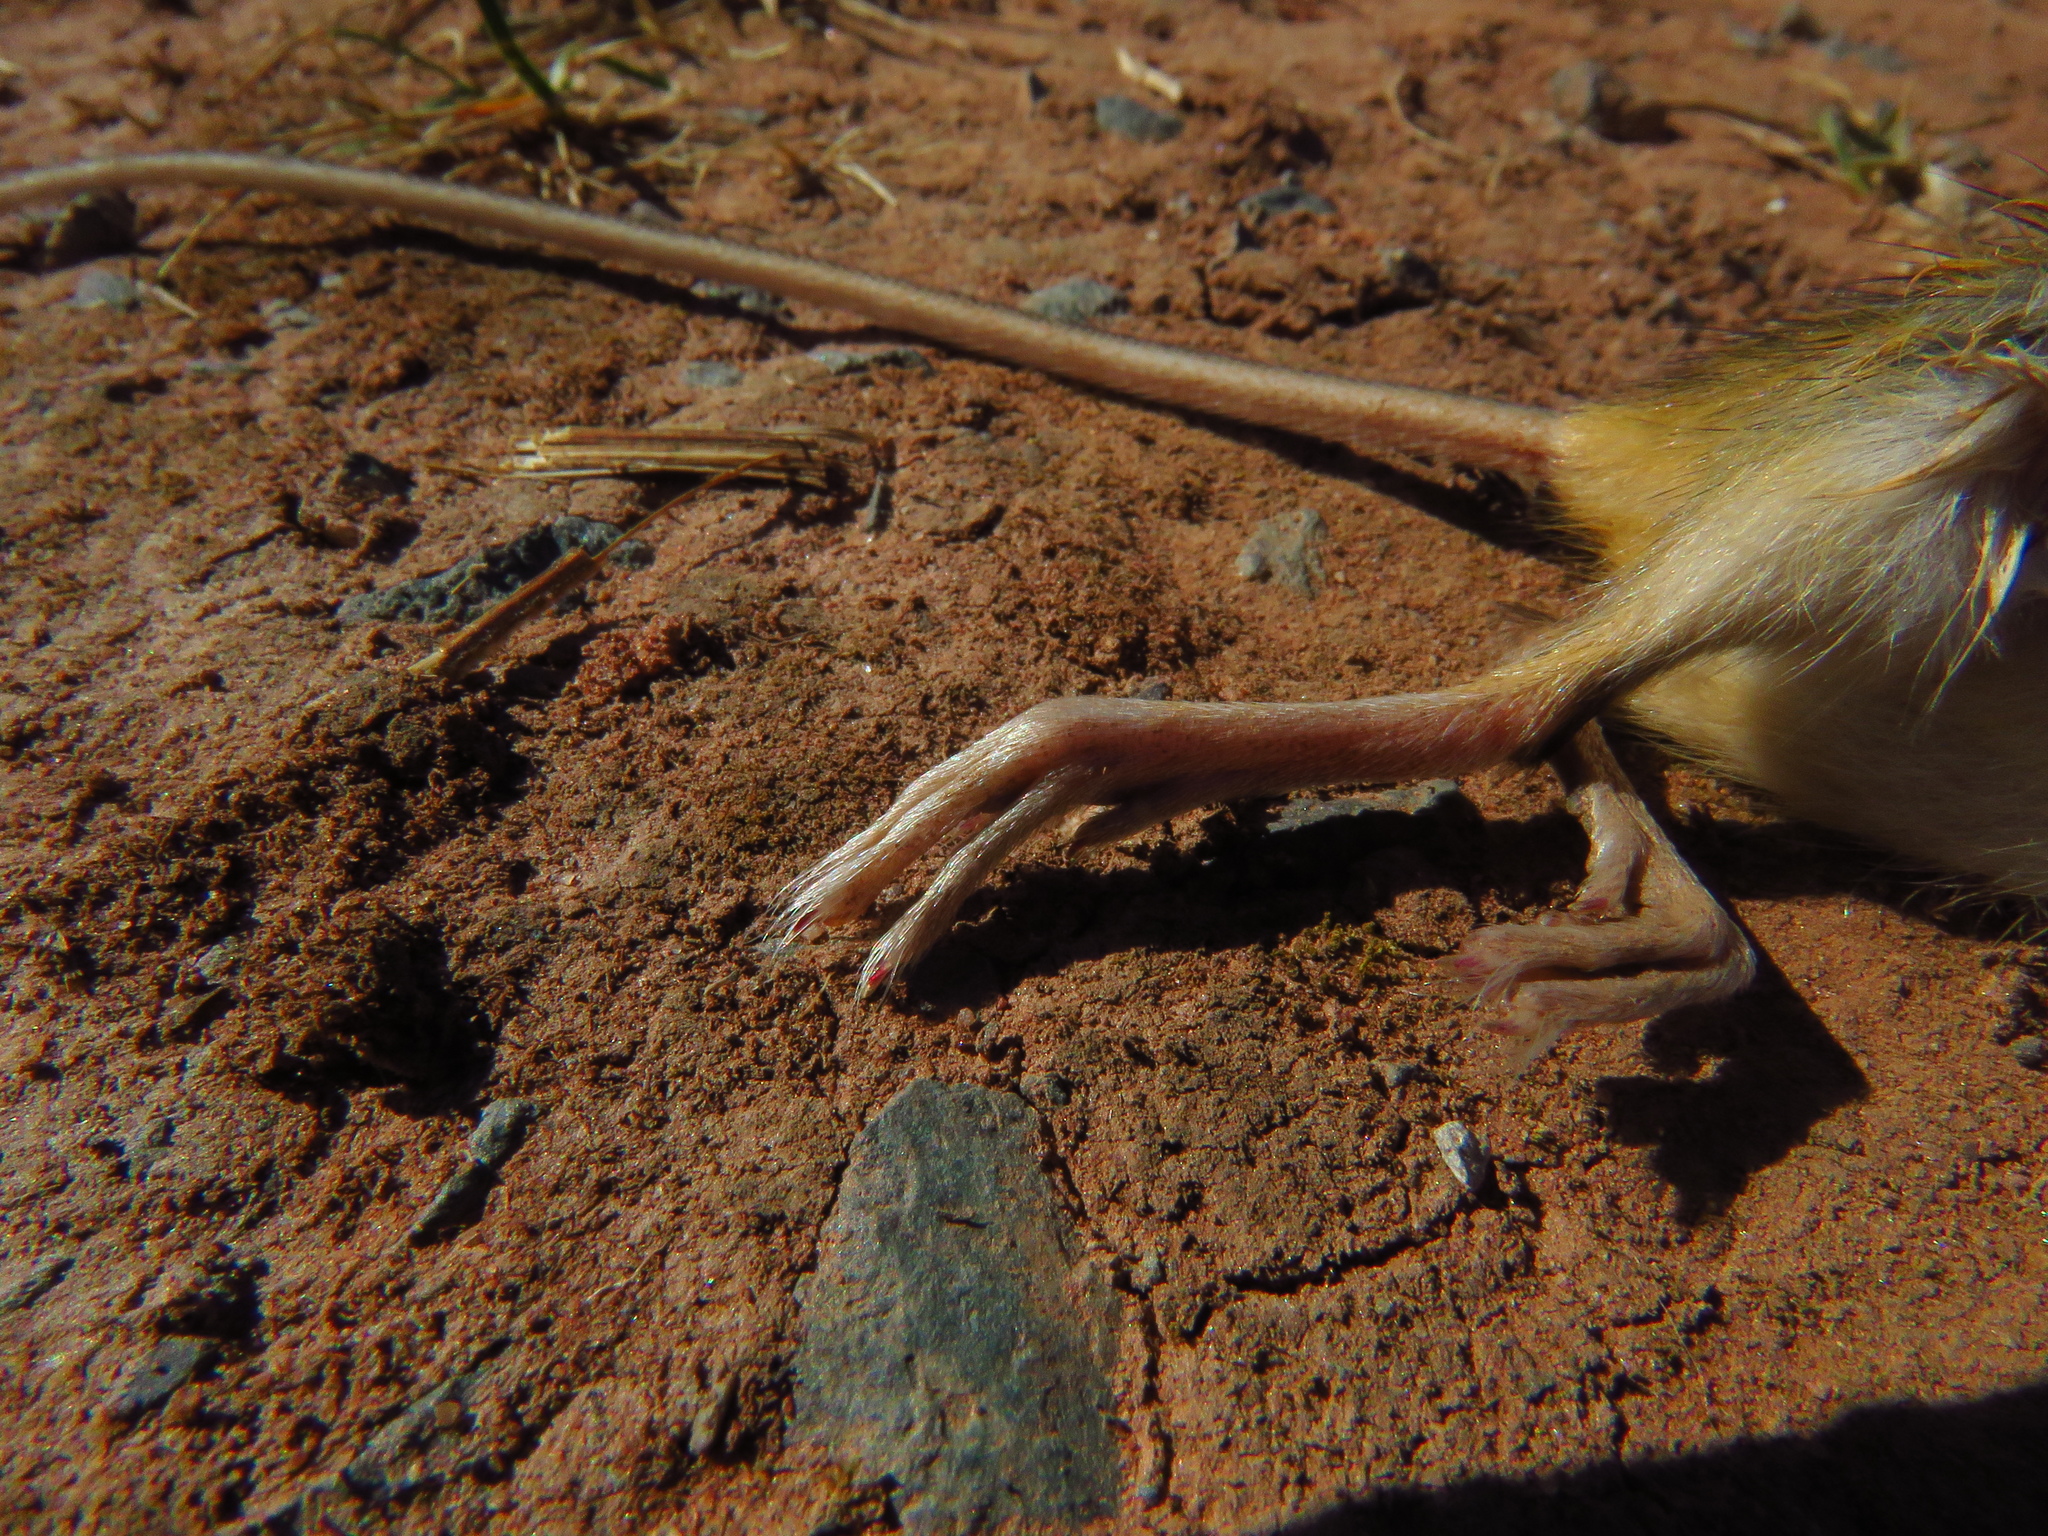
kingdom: Animalia
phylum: Chordata
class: Mammalia
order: Rodentia
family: Dipodidae
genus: Zapus
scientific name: Zapus hudsonius
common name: Meadow jumping mouse
